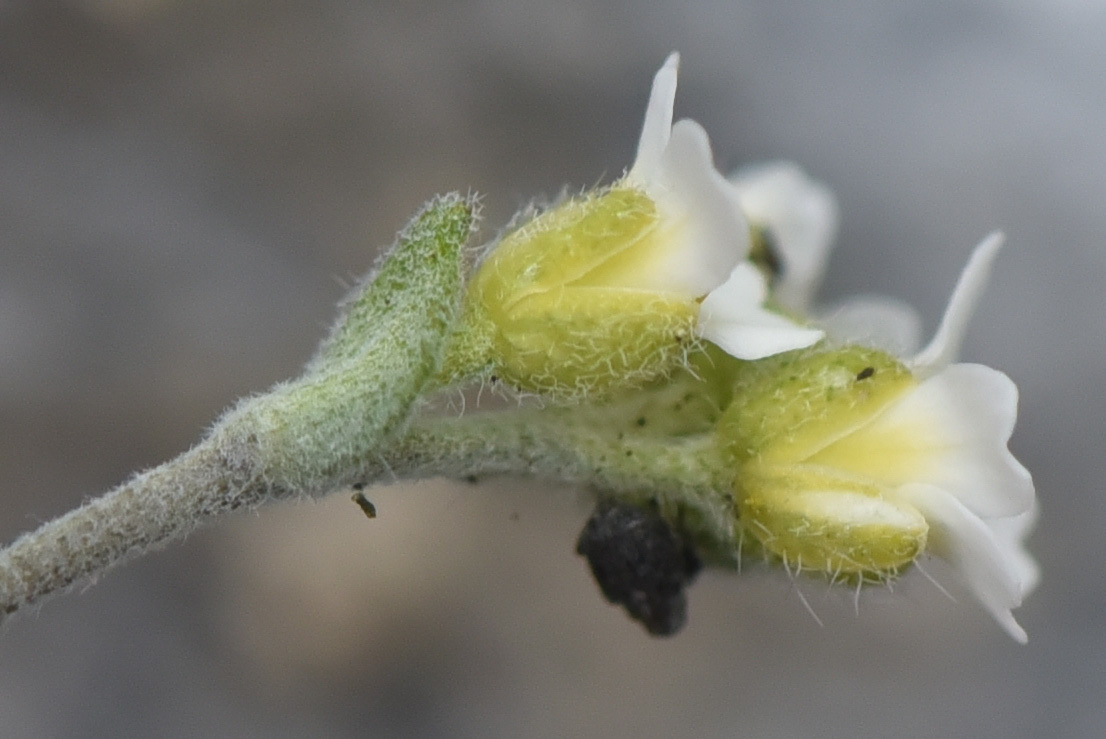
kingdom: Plantae
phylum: Tracheophyta
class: Magnoliopsida
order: Brassicales
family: Brassicaceae
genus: Draba
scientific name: Draba cana
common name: Hoary draba
